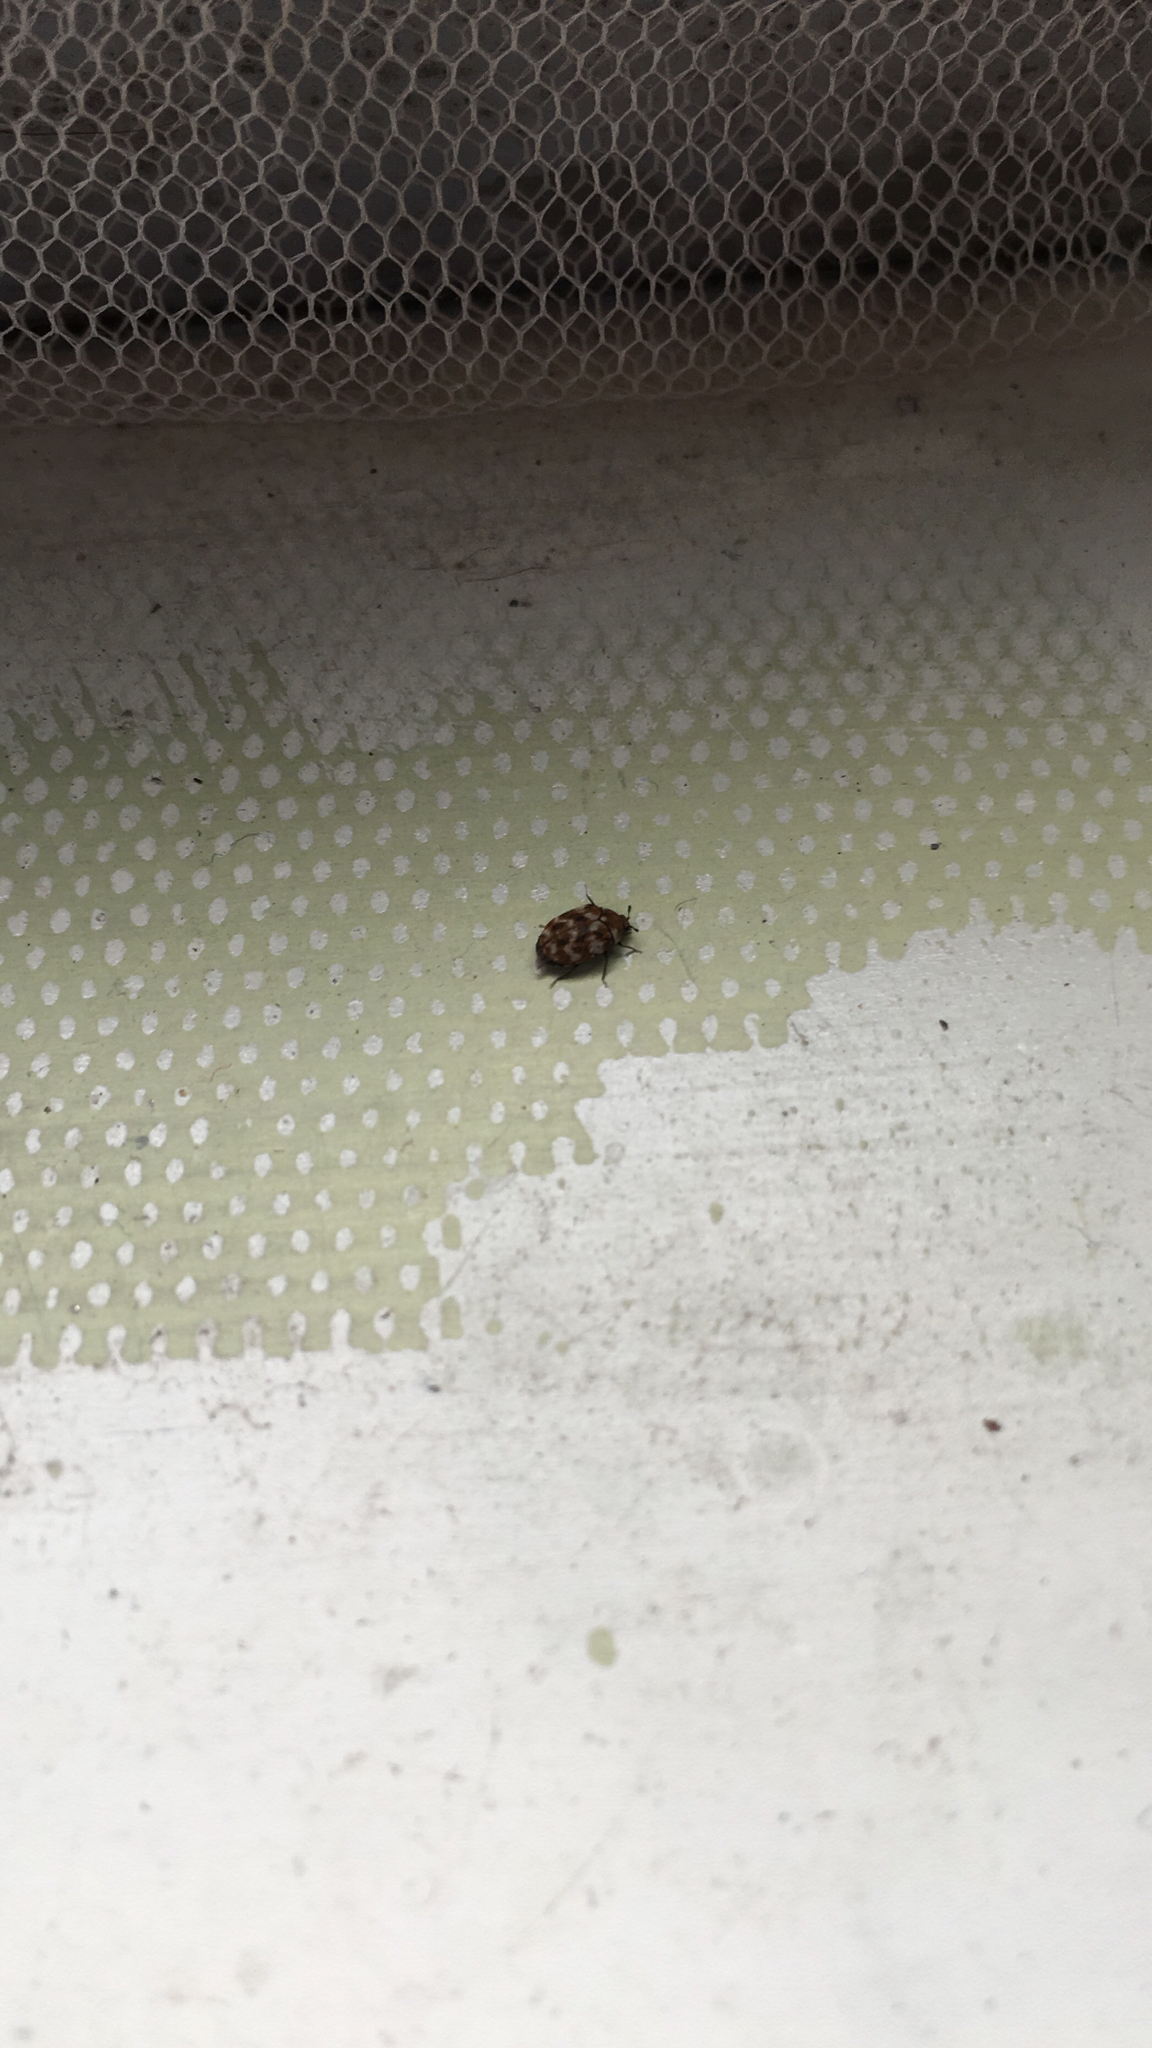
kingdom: Animalia
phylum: Arthropoda
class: Insecta
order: Coleoptera
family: Dermestidae
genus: Anthrenus
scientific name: Anthrenus verbasci
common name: Varied carpet beetle
